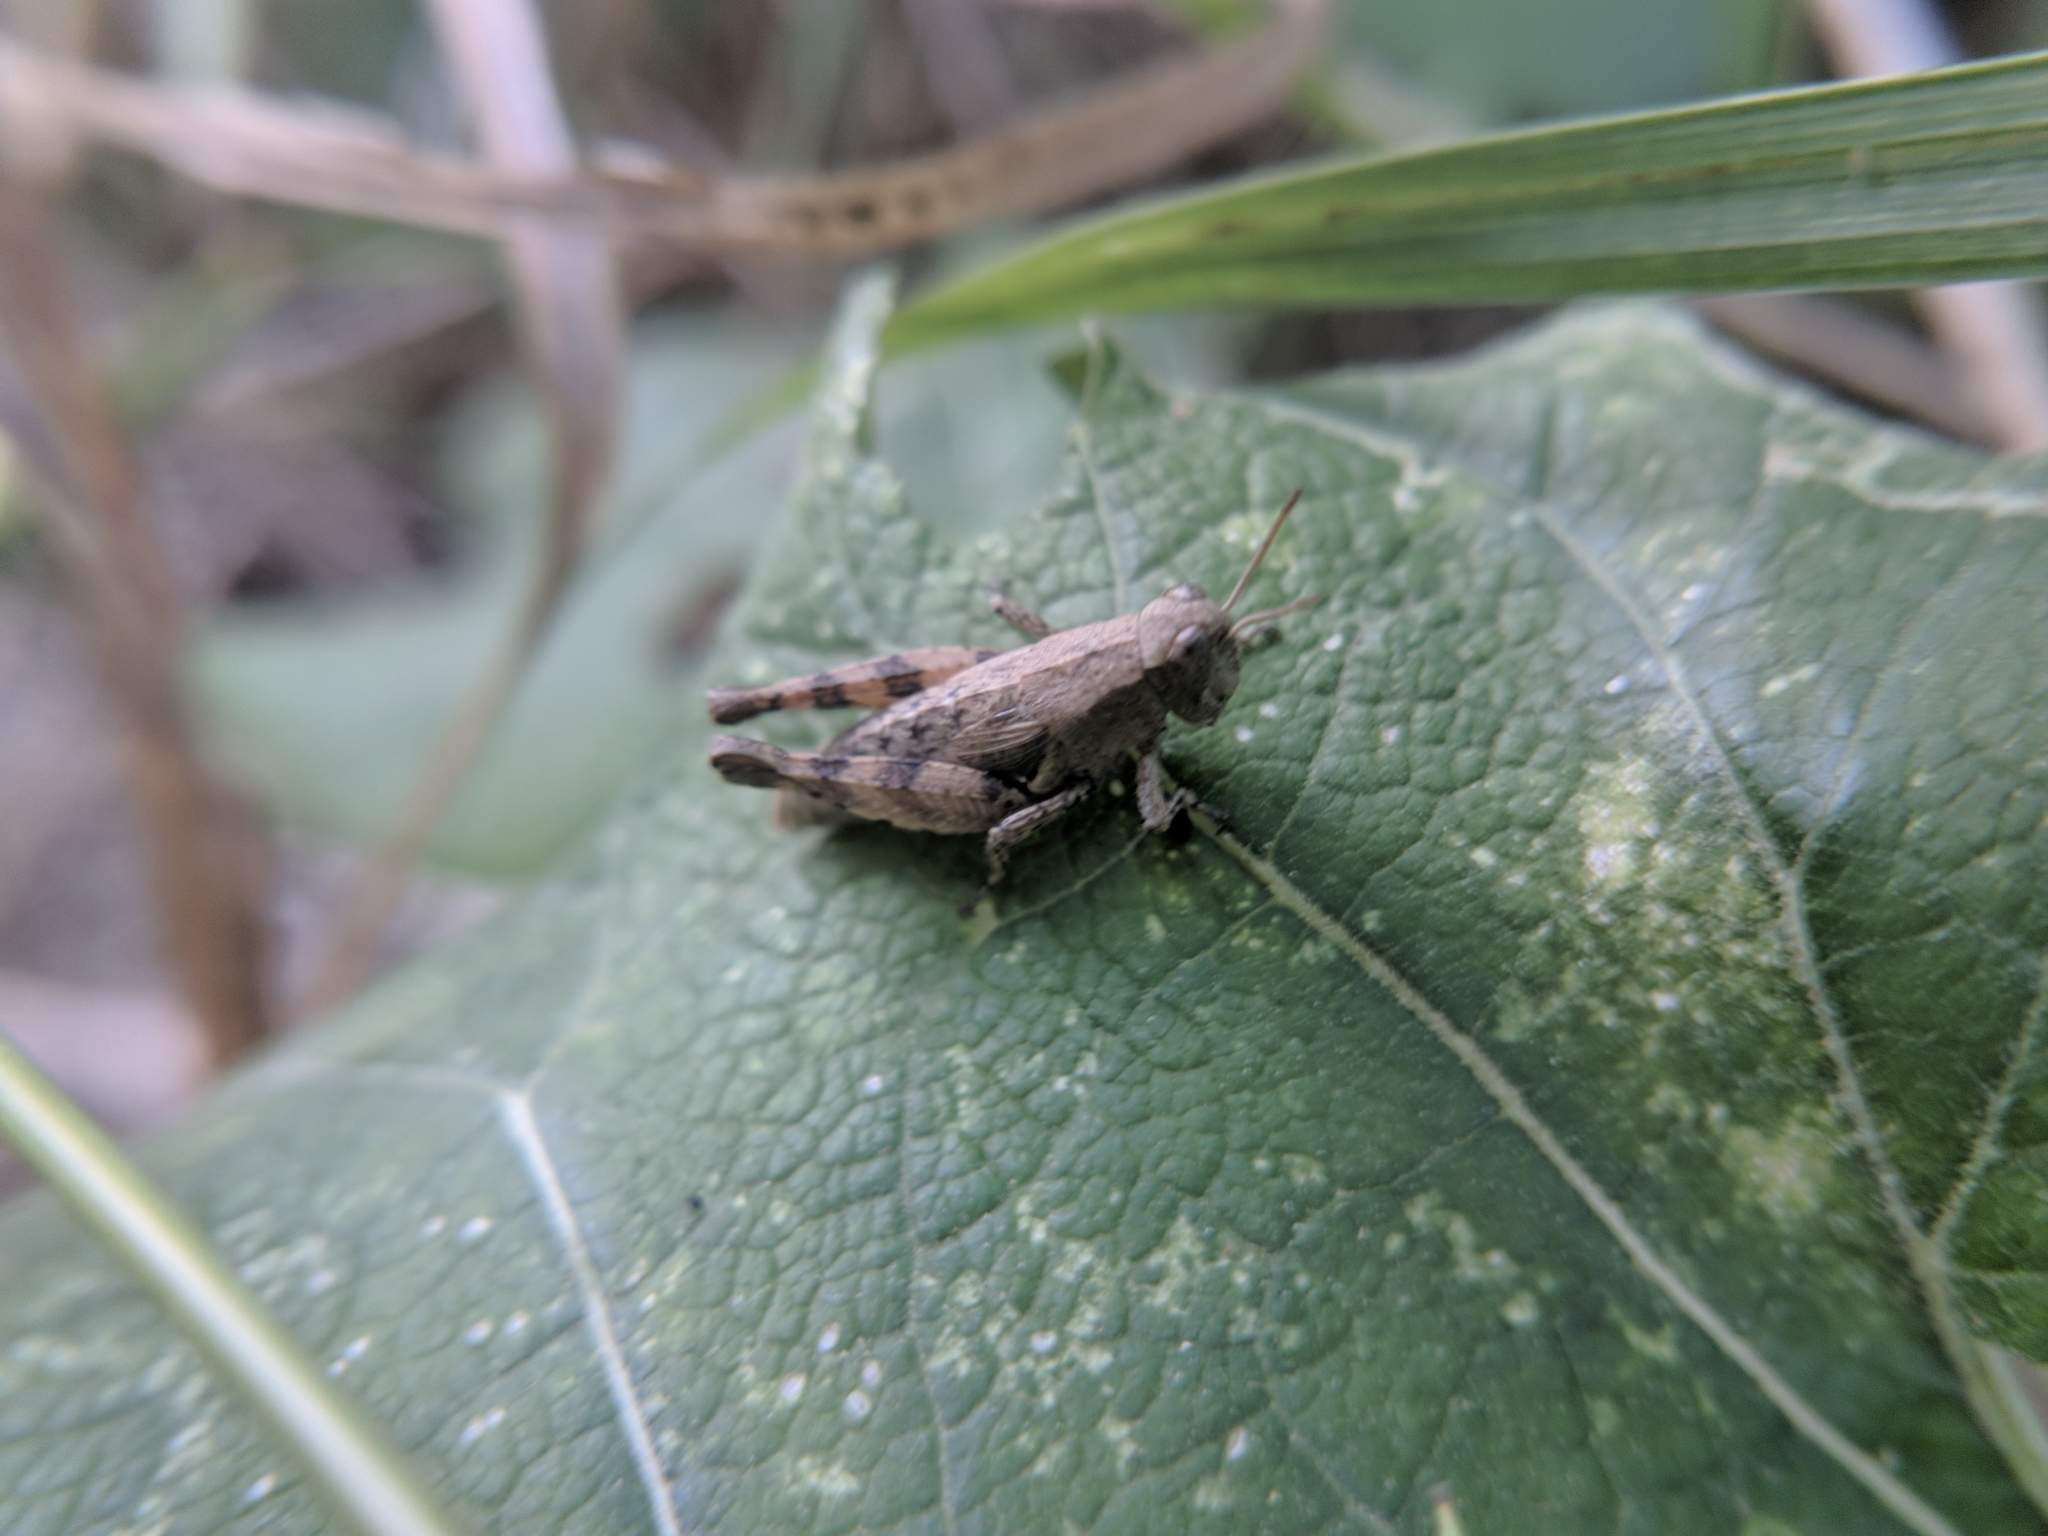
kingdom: Animalia
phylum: Arthropoda
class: Insecta
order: Orthoptera
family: Acrididae
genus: Pezotettix
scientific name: Pezotettix giornae
